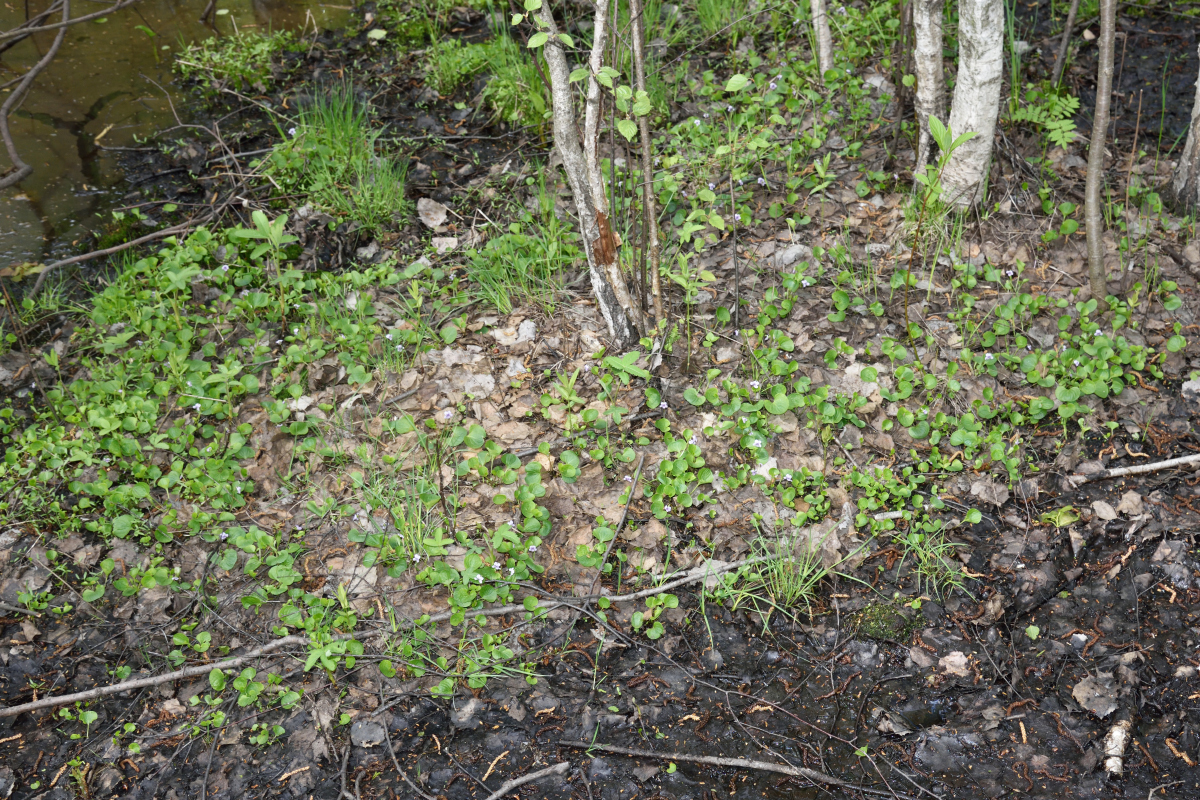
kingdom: Plantae
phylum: Tracheophyta
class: Magnoliopsida
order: Malpighiales
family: Violaceae
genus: Viola
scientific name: Viola palustris
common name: Marsh violet
